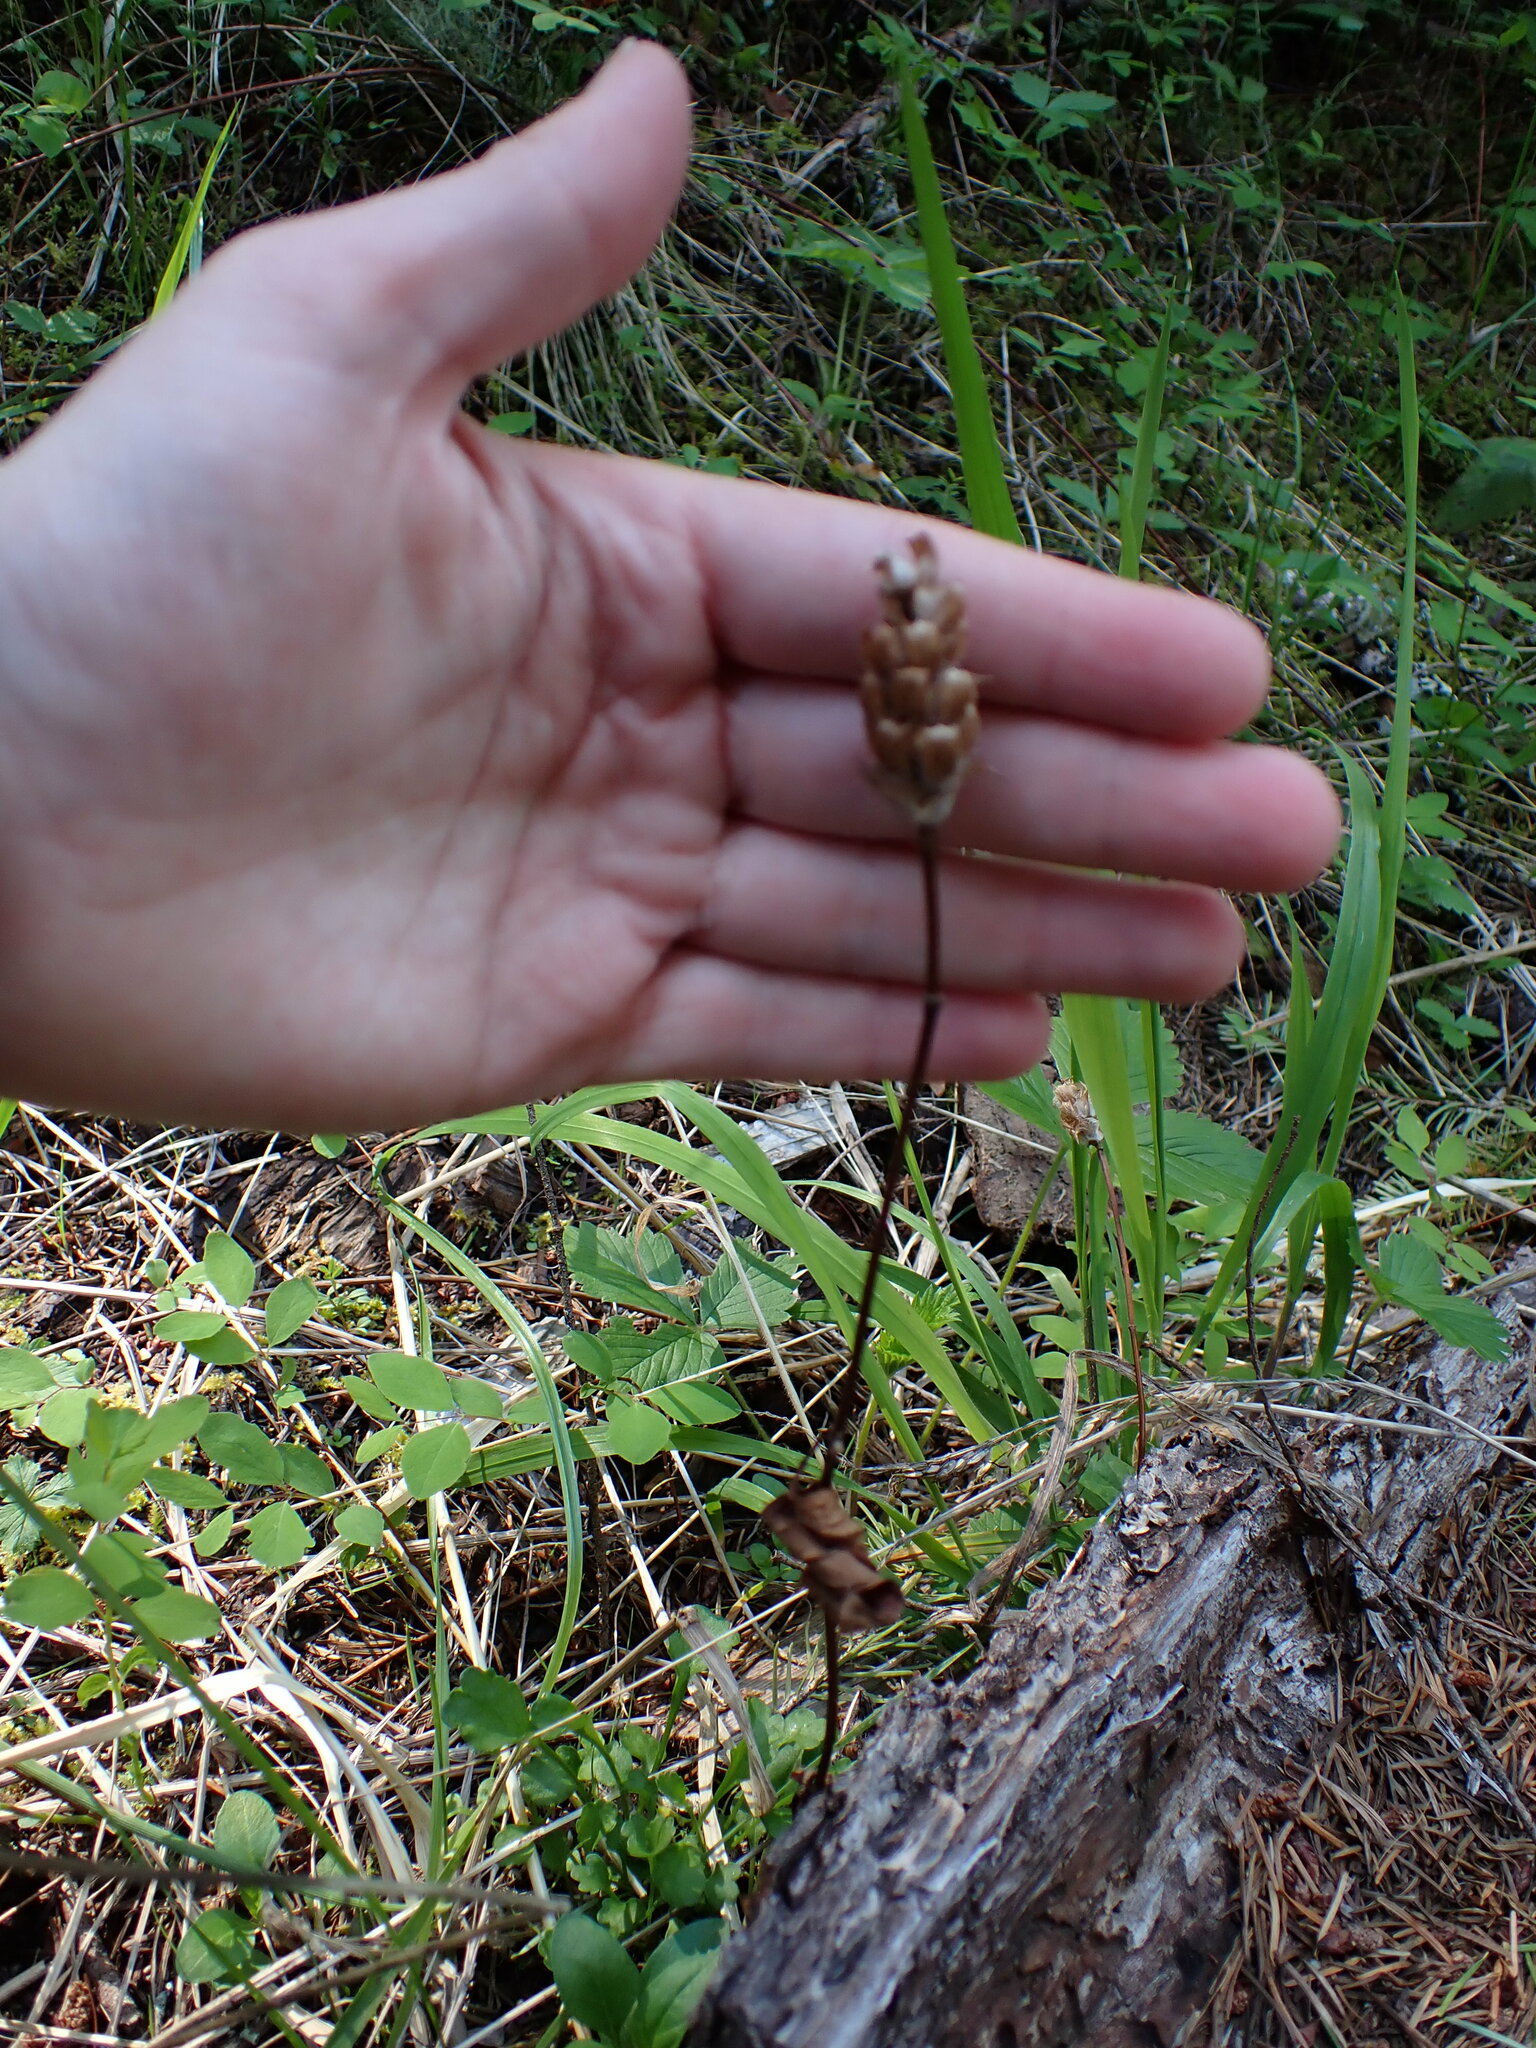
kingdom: Plantae
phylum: Tracheophyta
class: Magnoliopsida
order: Lamiales
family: Lamiaceae
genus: Prunella
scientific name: Prunella vulgaris
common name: Heal-all
